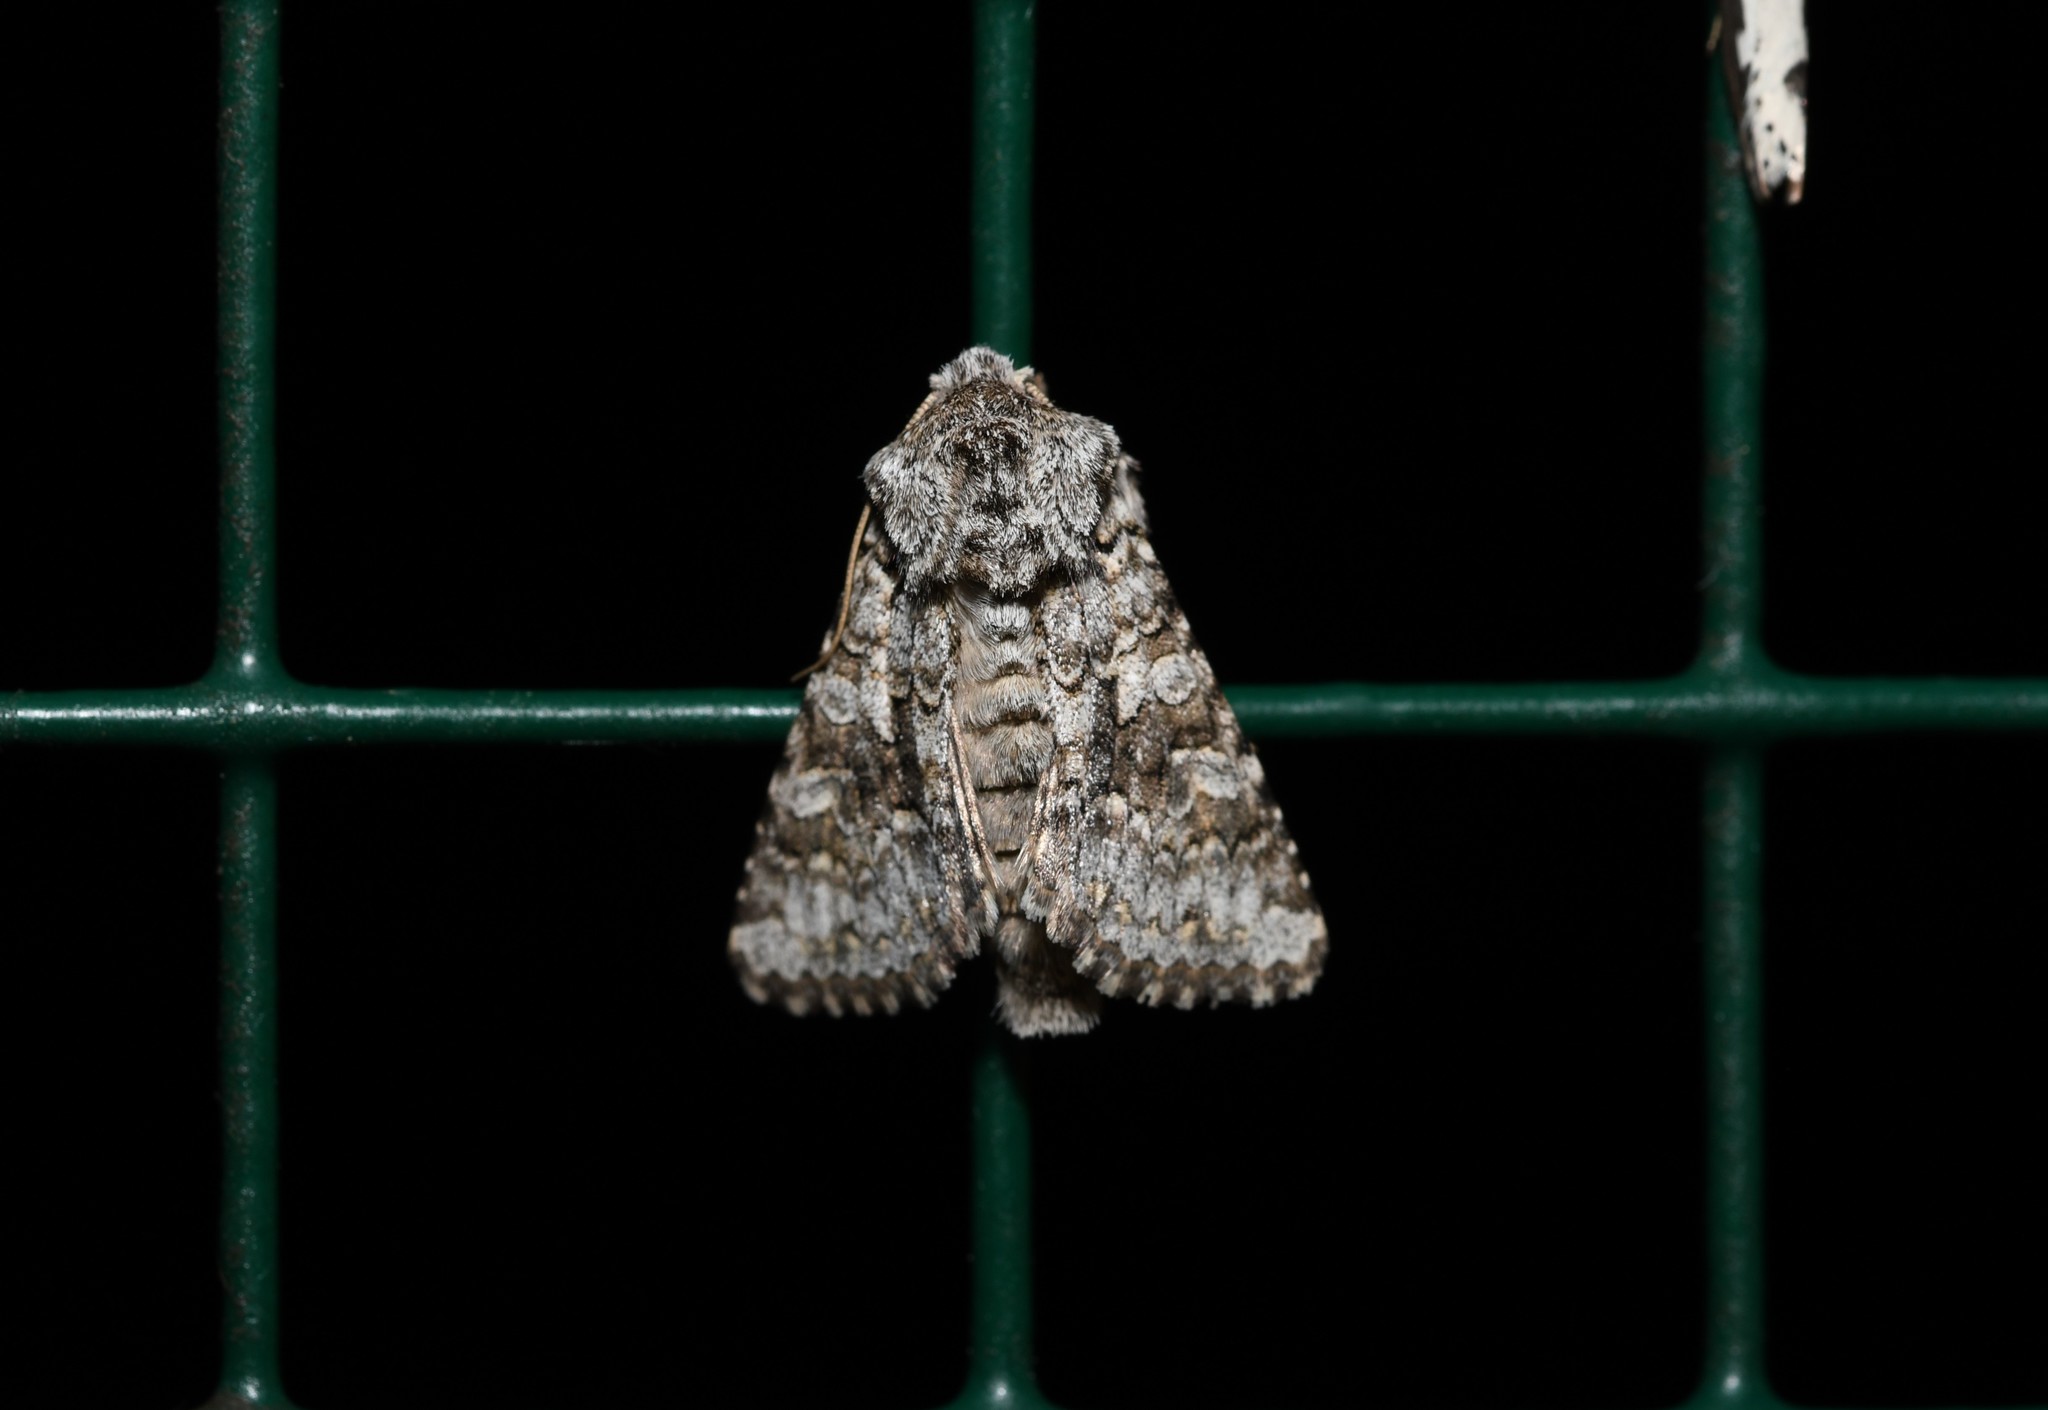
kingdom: Animalia
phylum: Arthropoda
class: Insecta
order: Lepidoptera
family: Noctuidae
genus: Hecatera
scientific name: Hecatera weissi
